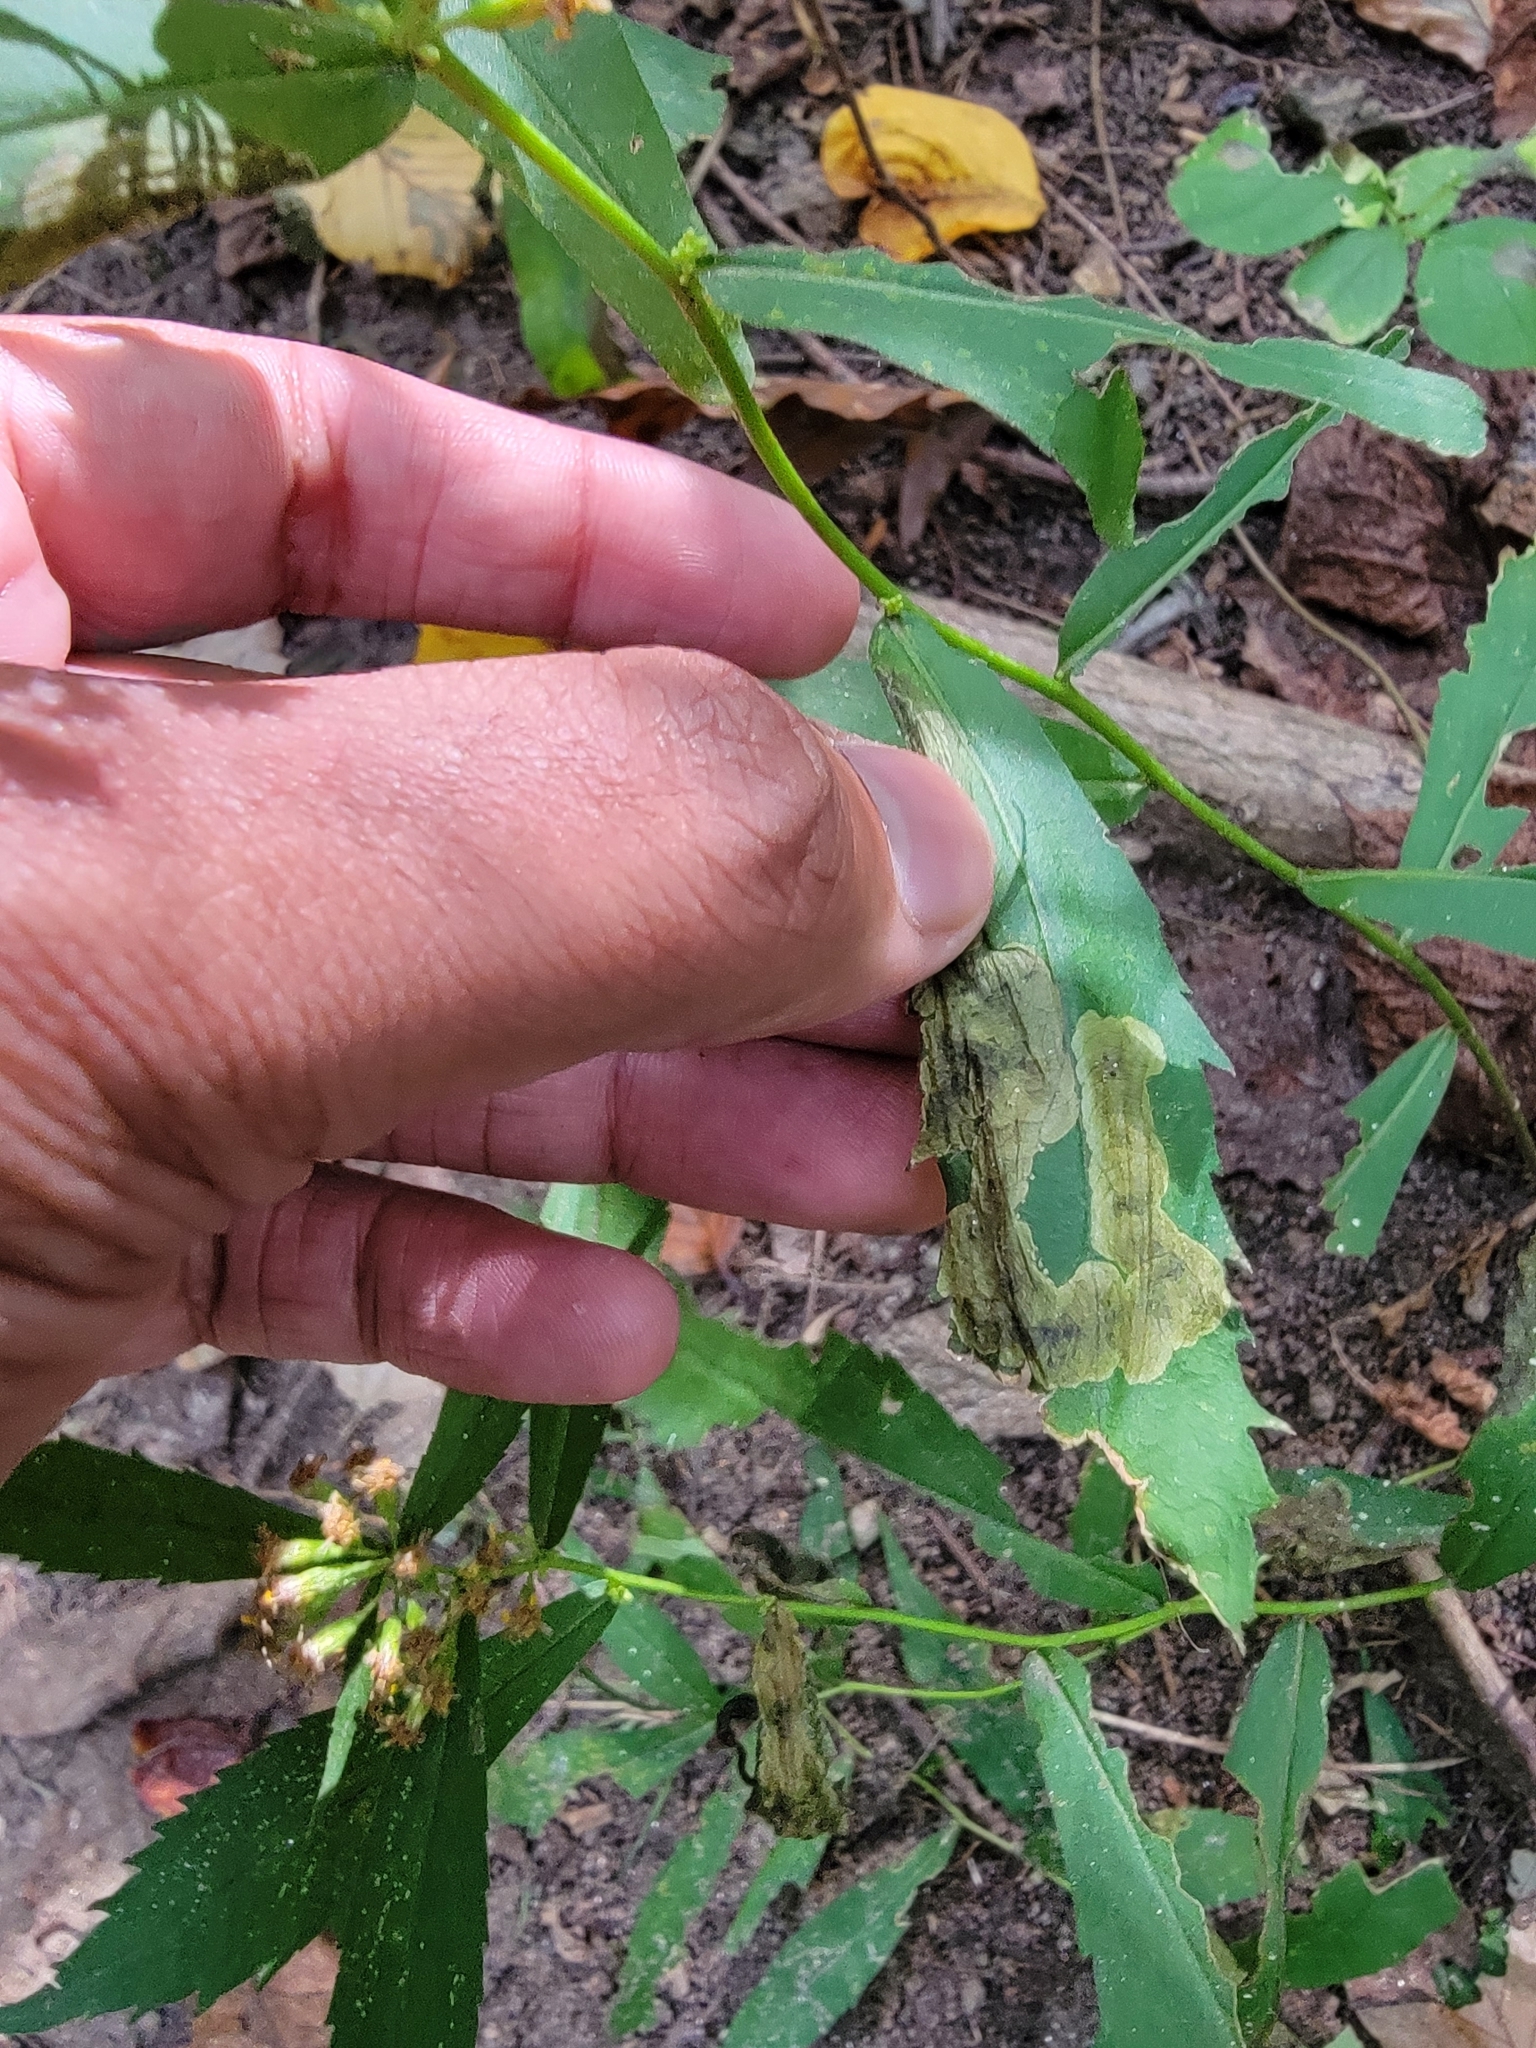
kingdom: Animalia
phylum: Arthropoda
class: Insecta
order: Diptera
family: Agromyzidae
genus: Nemorimyza
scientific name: Nemorimyza posticata
